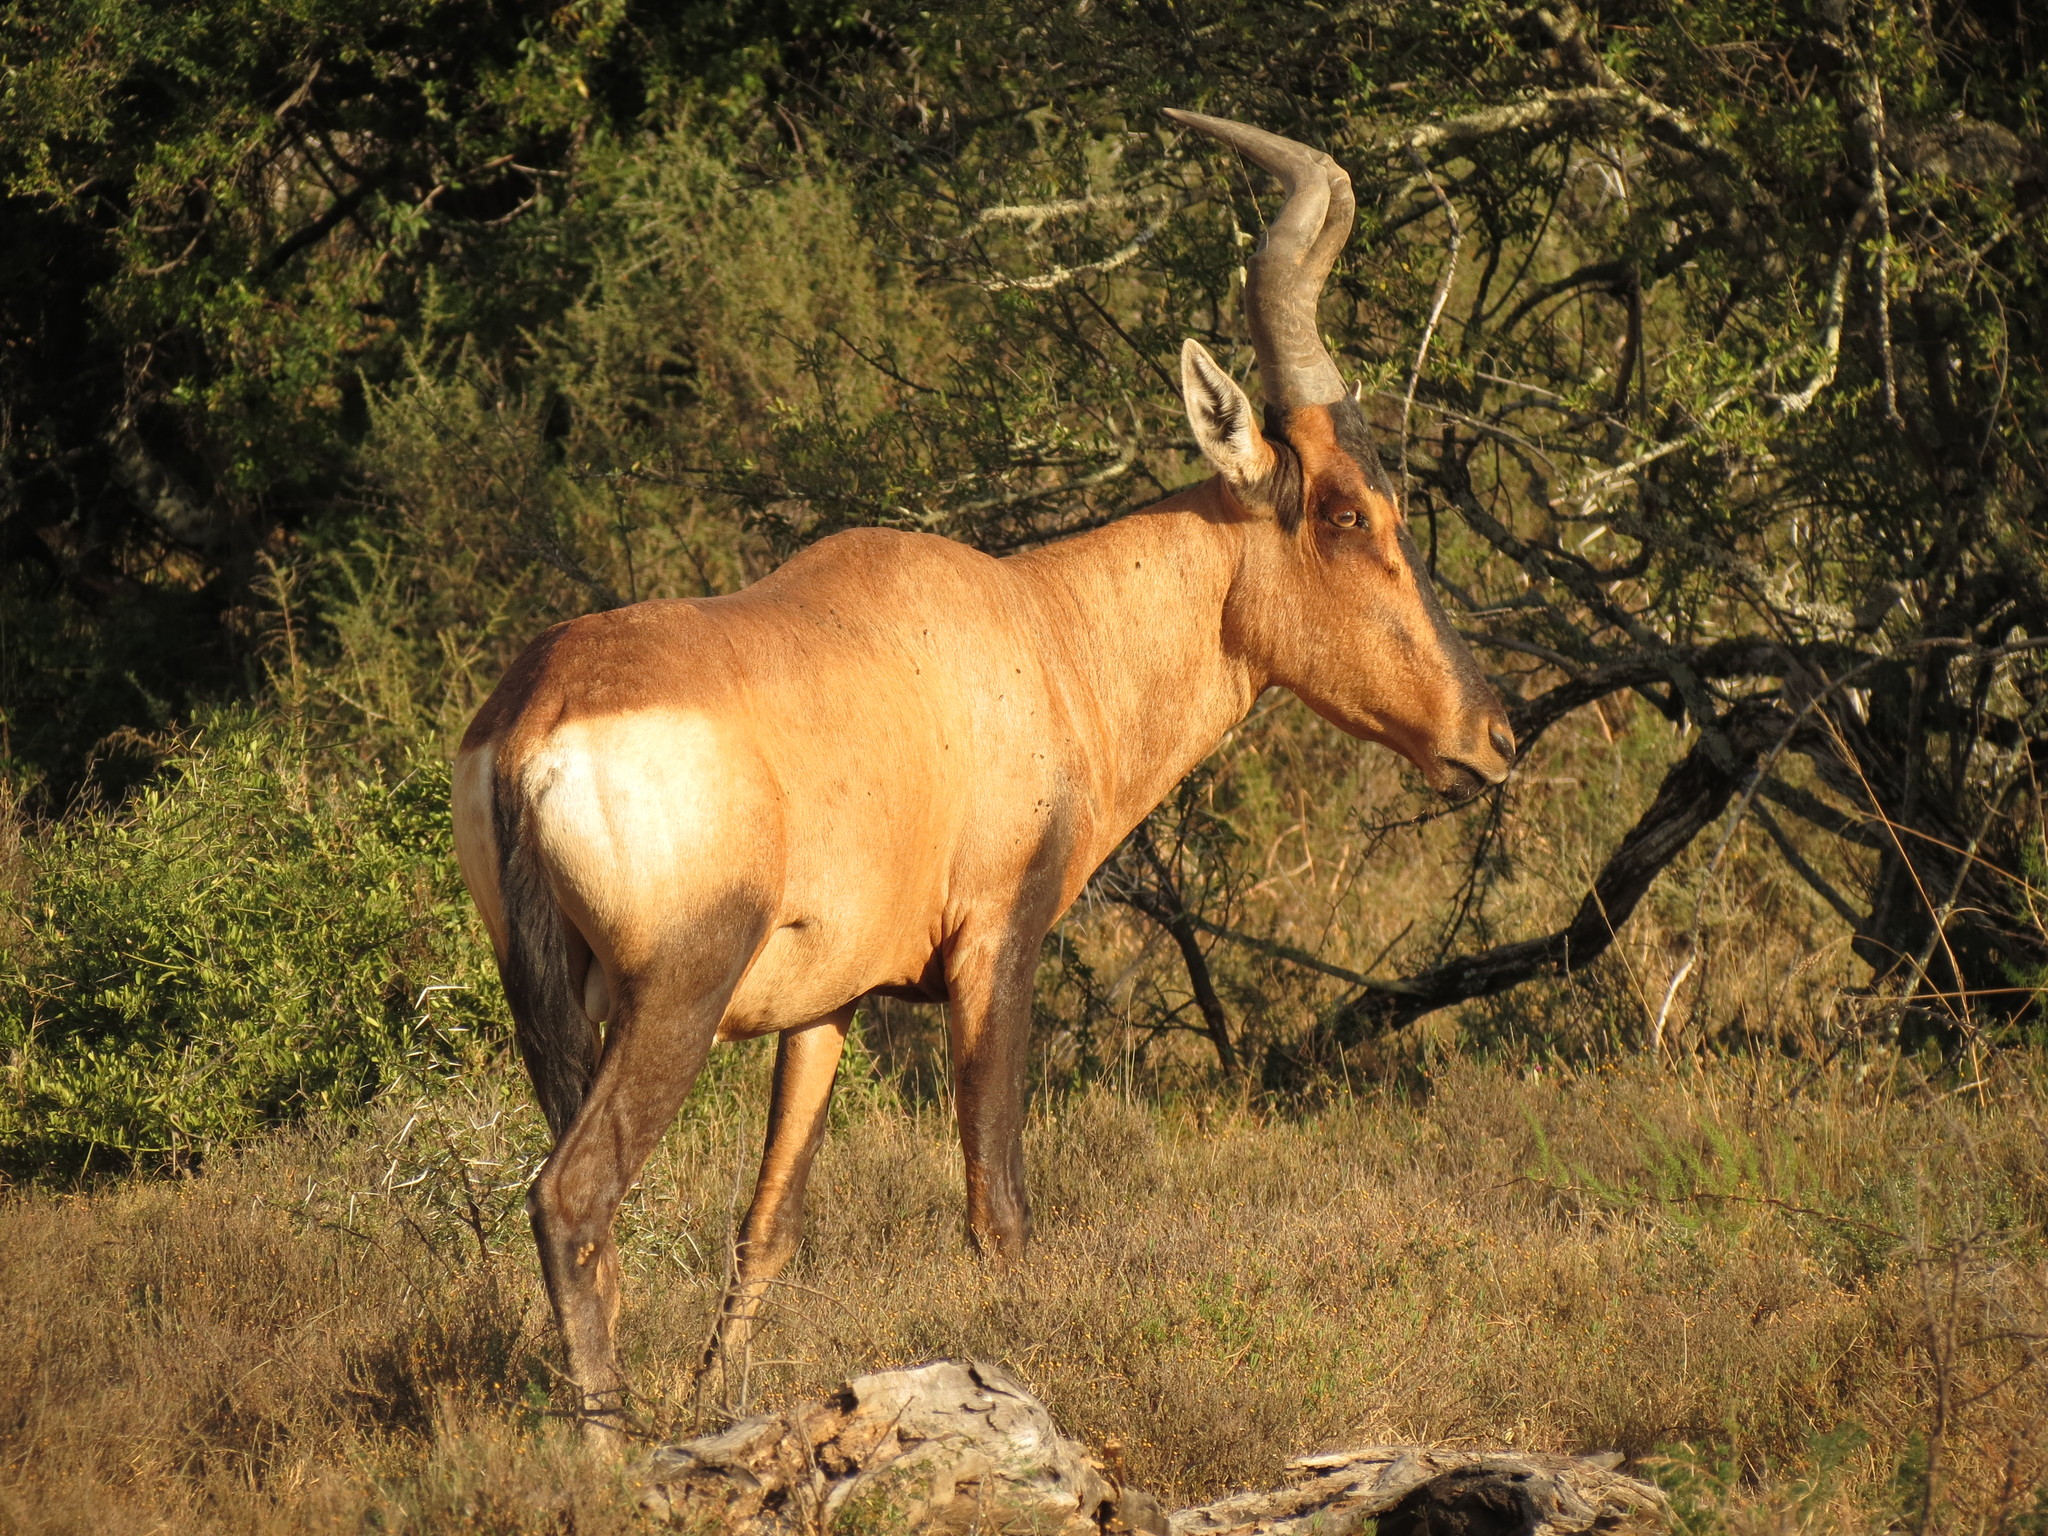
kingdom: Animalia
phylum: Chordata
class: Mammalia
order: Artiodactyla
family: Bovidae
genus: Alcelaphus
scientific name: Alcelaphus caama
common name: Red hartebeest
